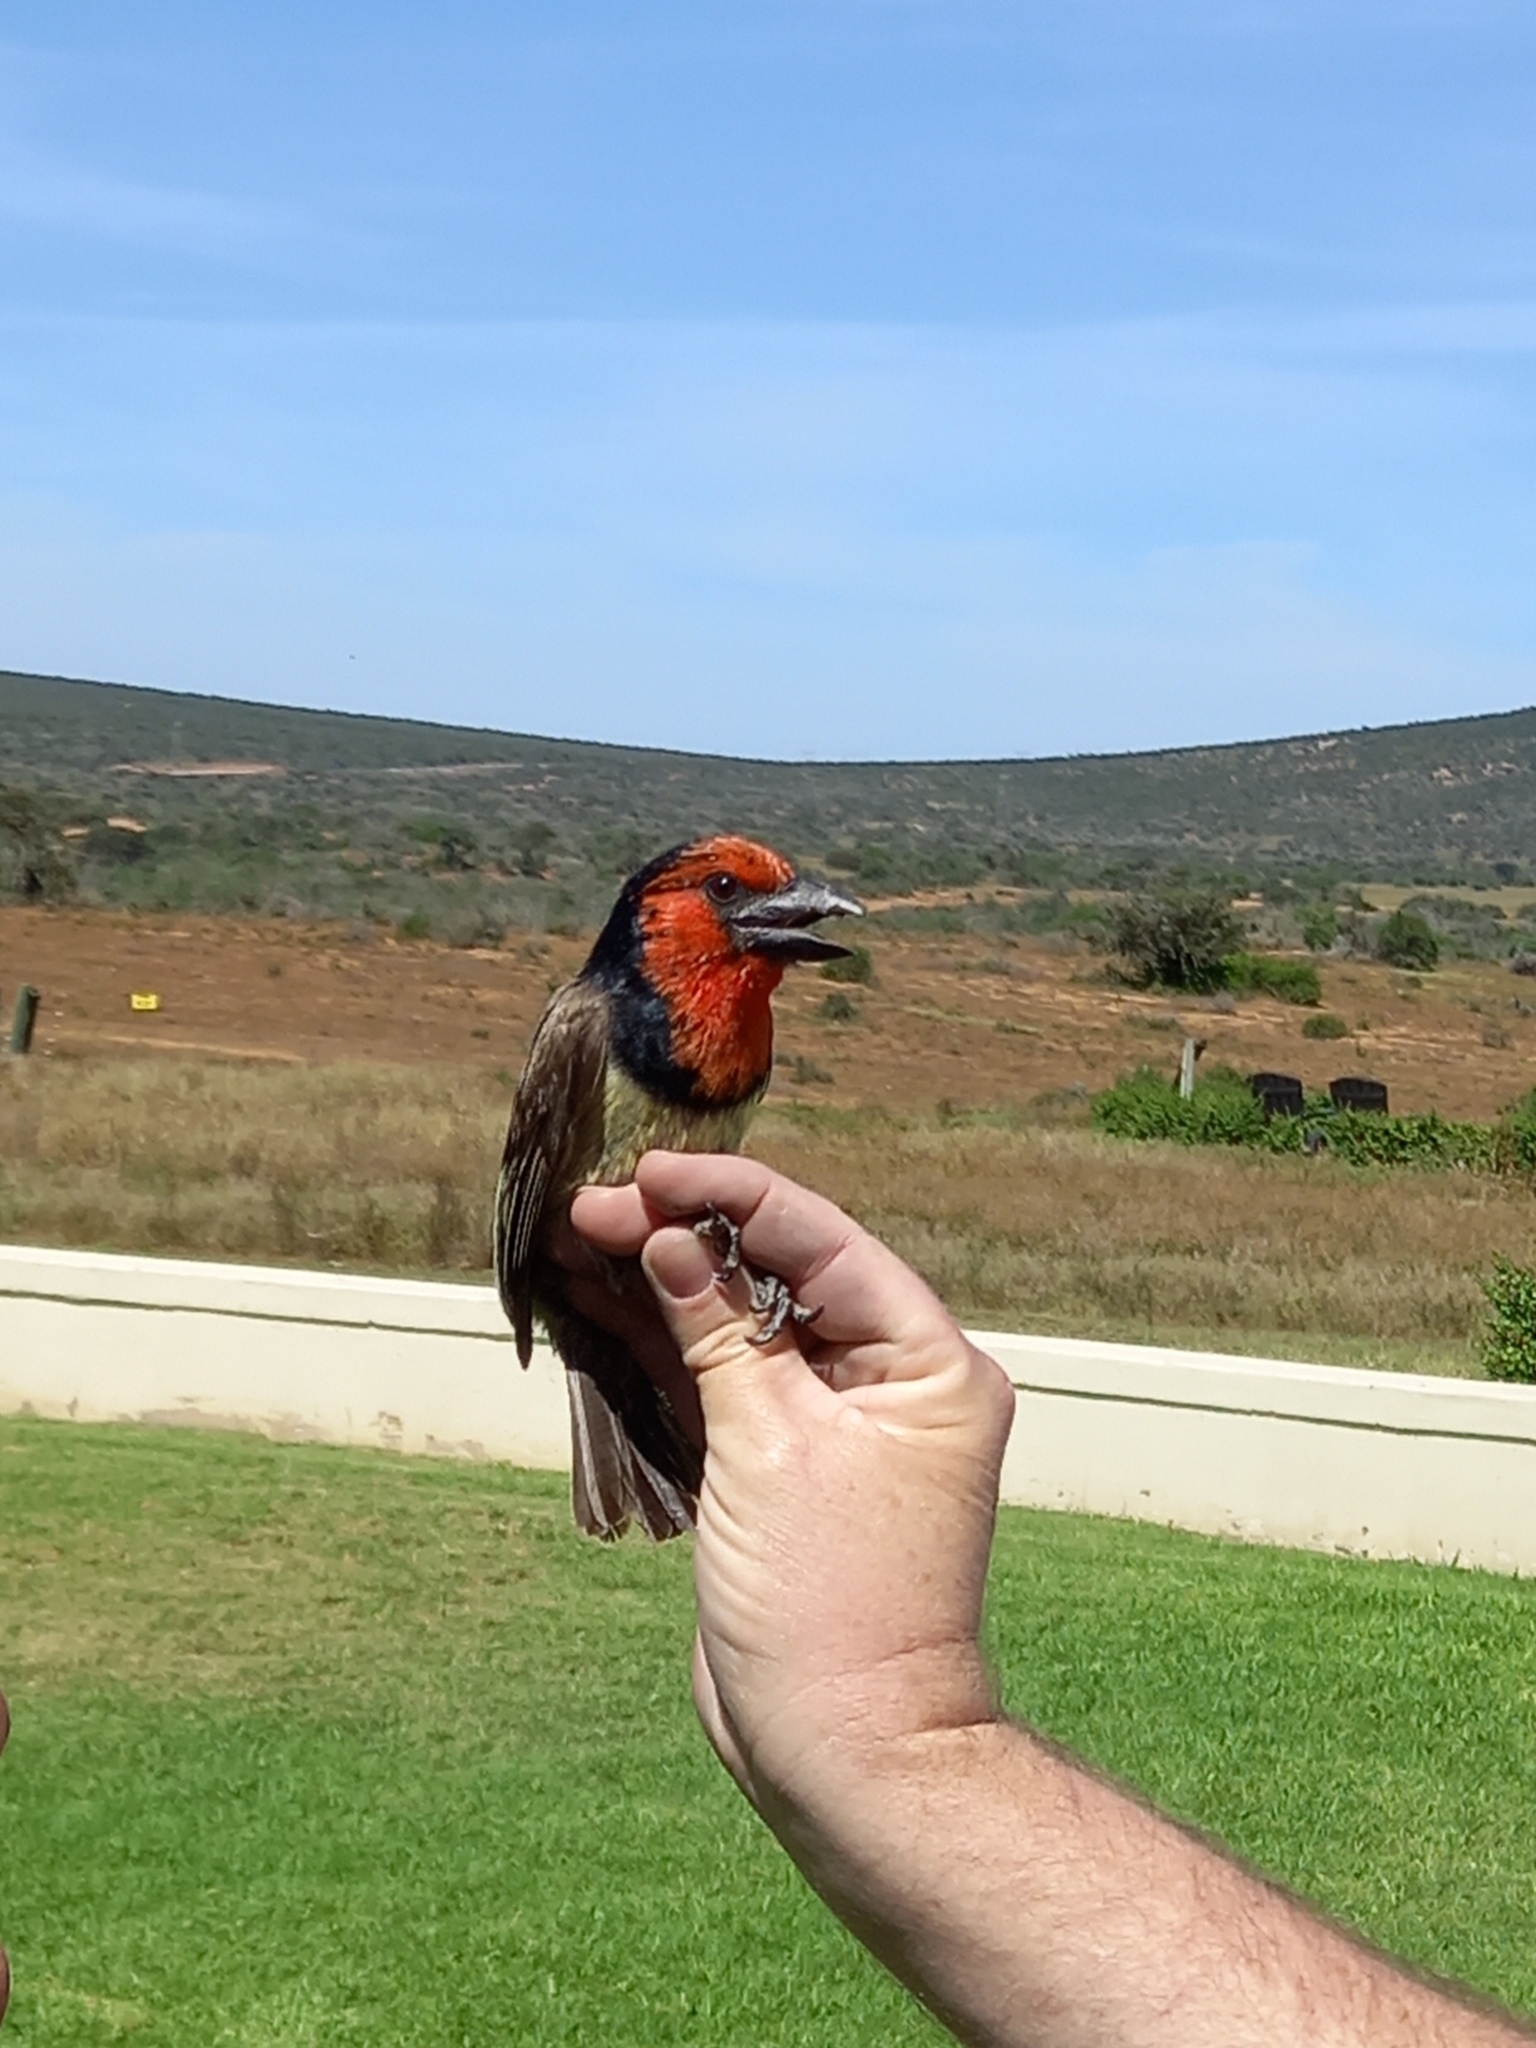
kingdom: Animalia
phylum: Chordata
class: Aves
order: Piciformes
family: Lybiidae
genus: Lybius
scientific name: Lybius torquatus
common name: Black-collared barbet
